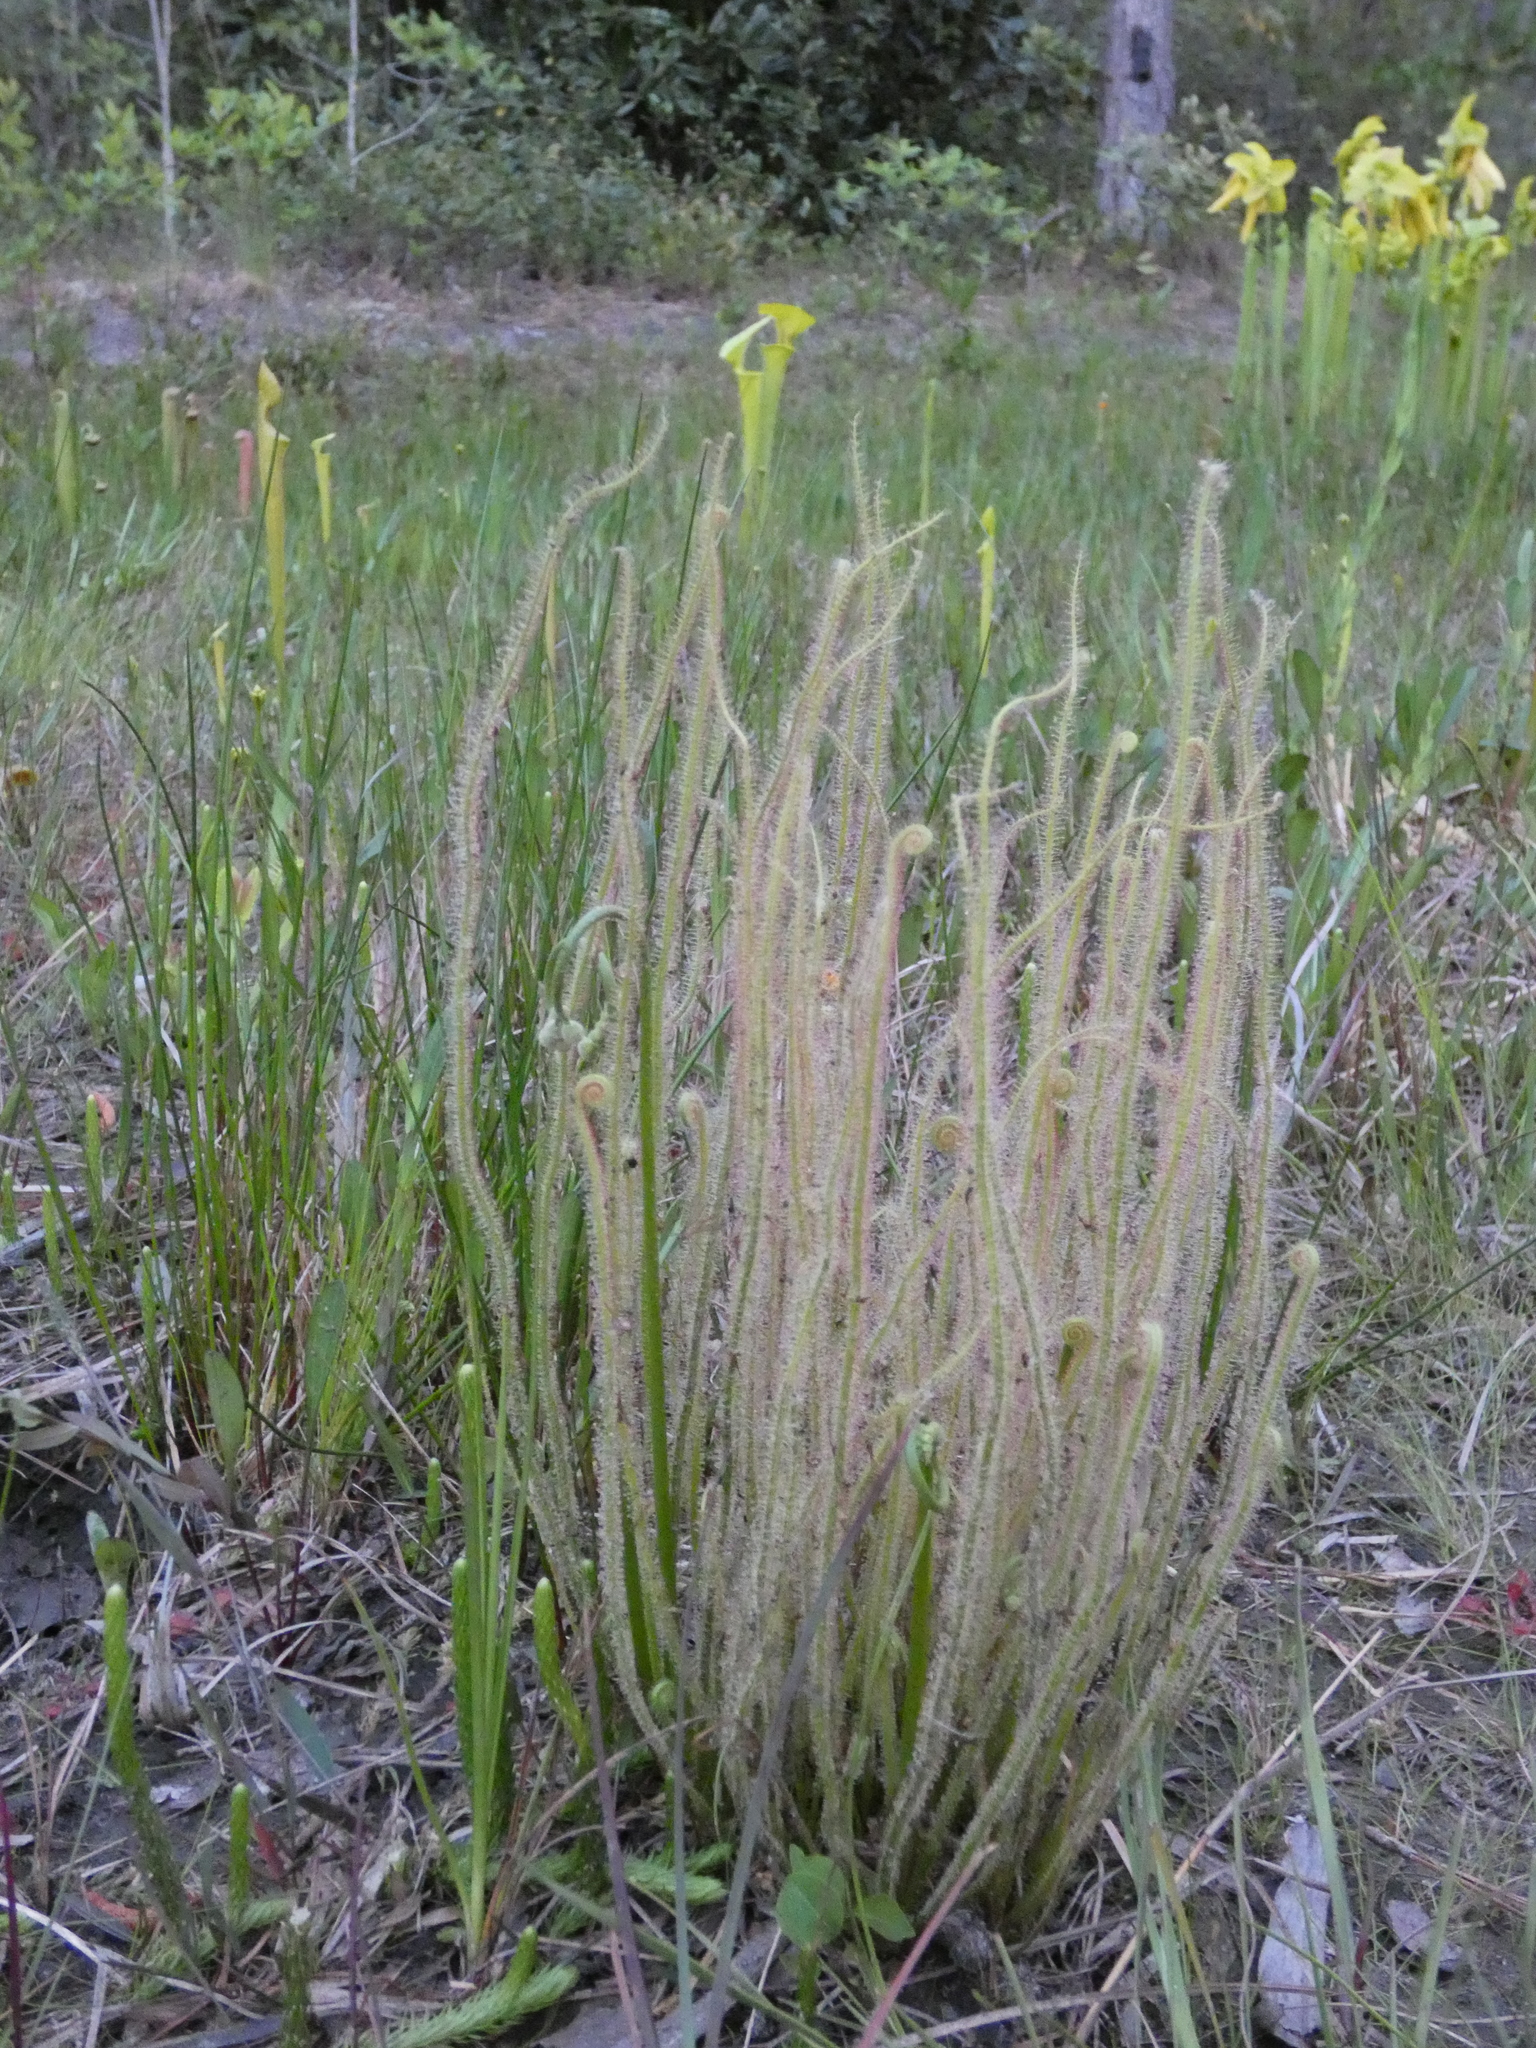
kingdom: Plantae
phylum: Tracheophyta
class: Magnoliopsida
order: Caryophyllales
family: Droseraceae
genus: Drosera
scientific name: Drosera filiformis
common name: Dew-thread
